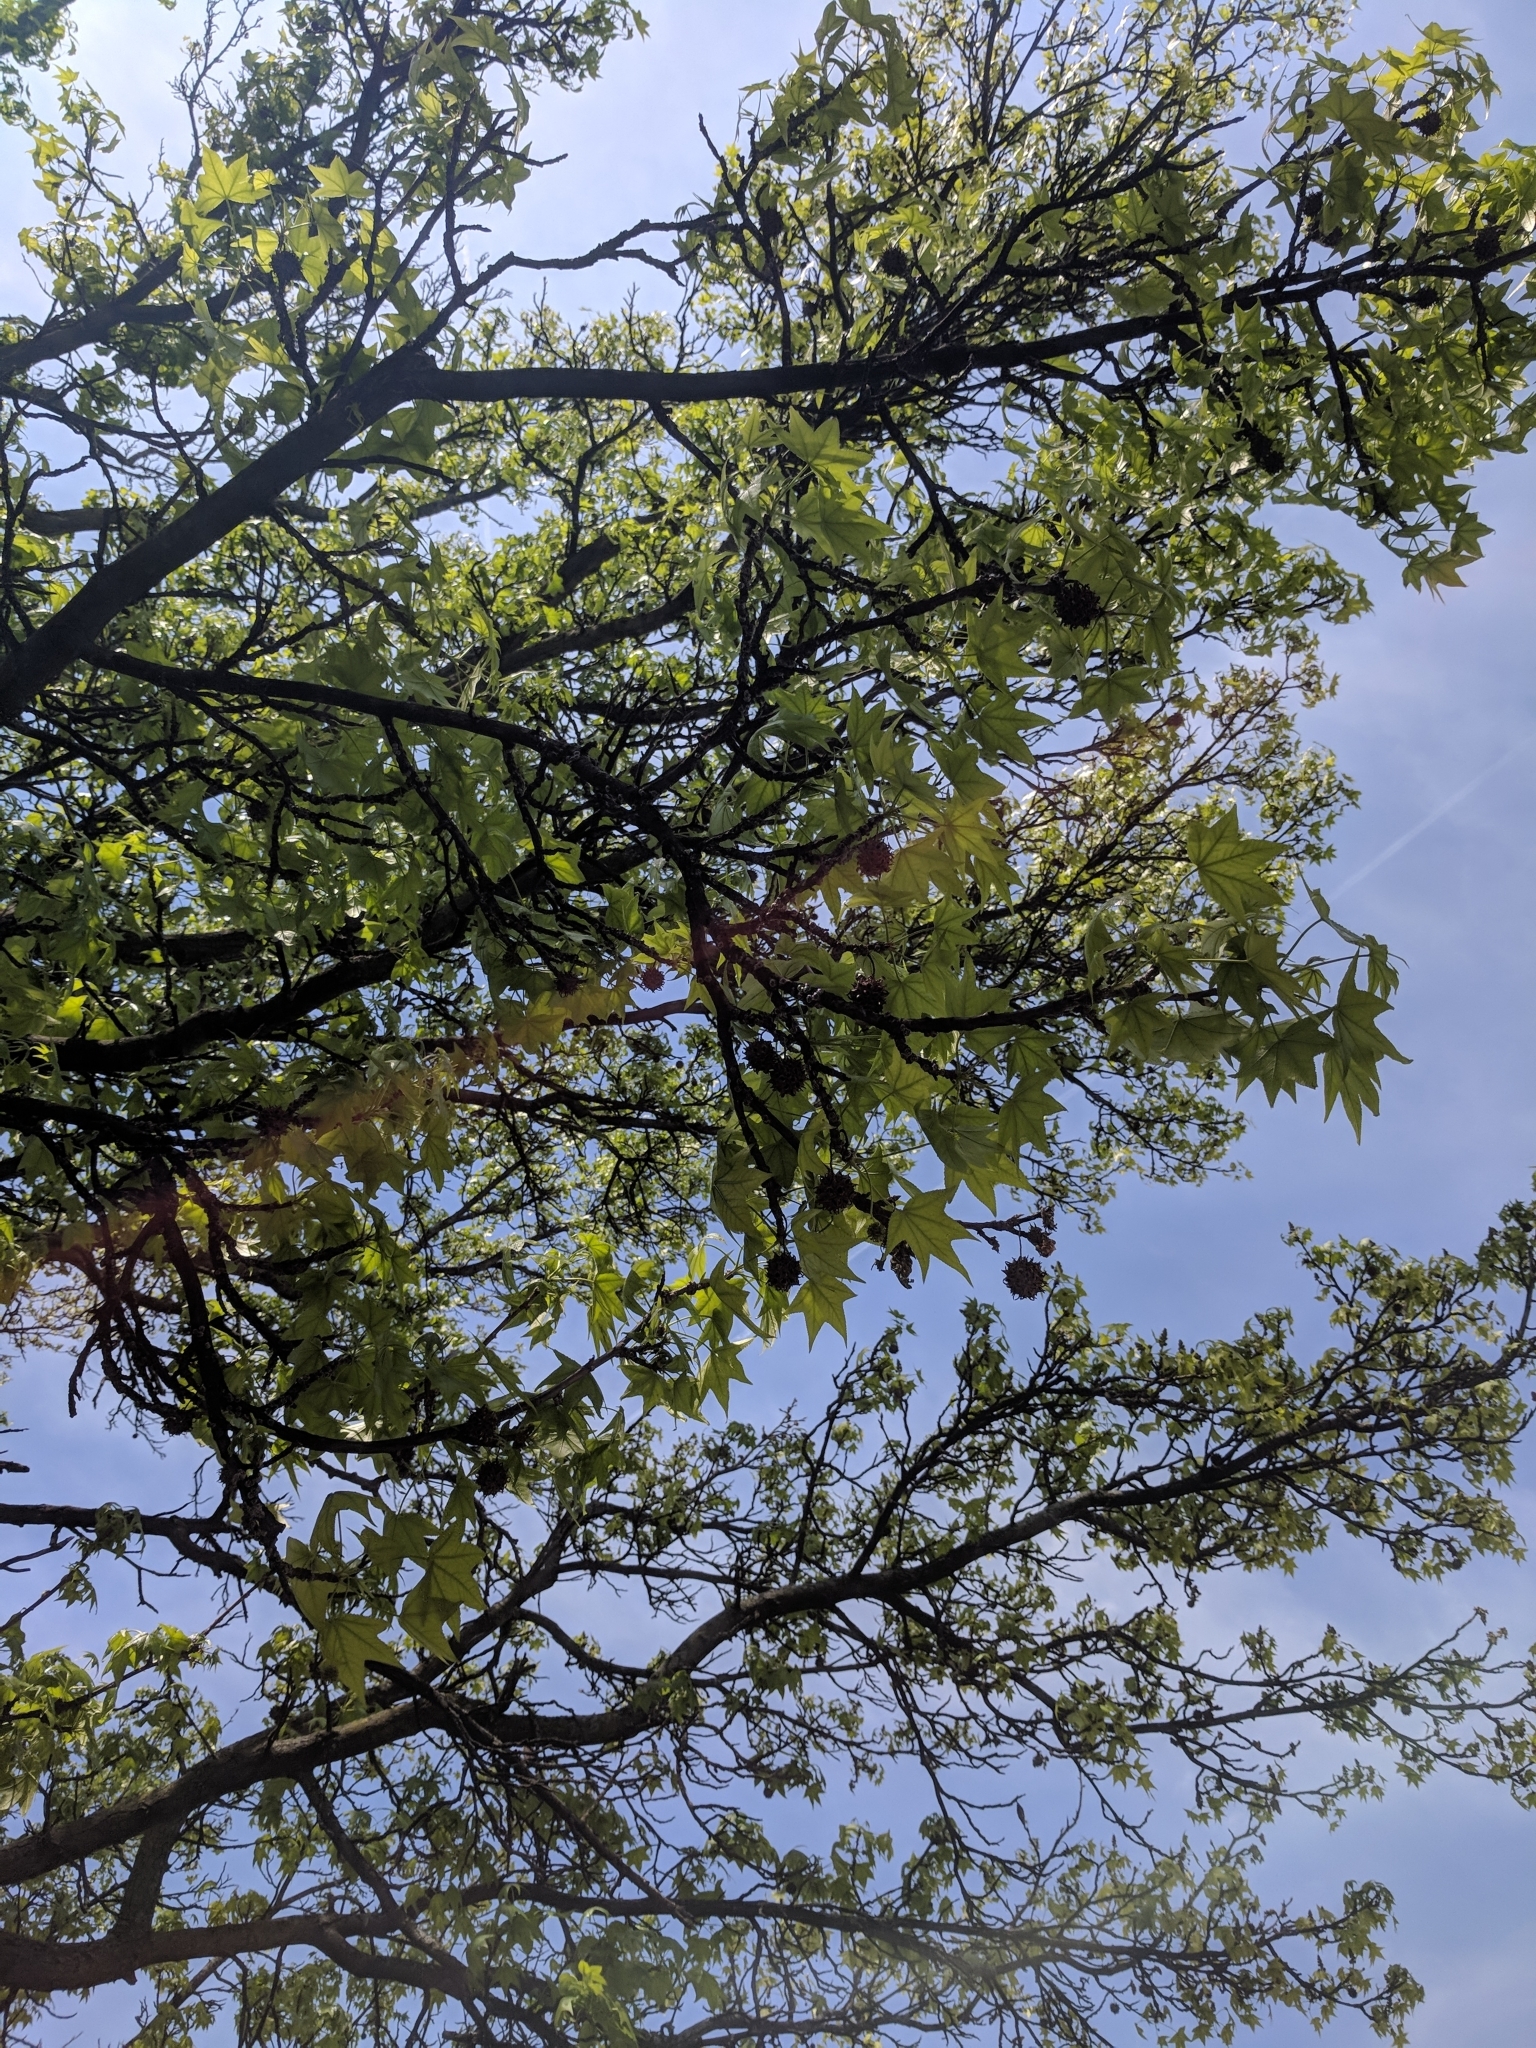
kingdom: Plantae
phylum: Tracheophyta
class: Magnoliopsida
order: Saxifragales
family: Altingiaceae
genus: Liquidambar
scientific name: Liquidambar styraciflua
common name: Sweet gum
